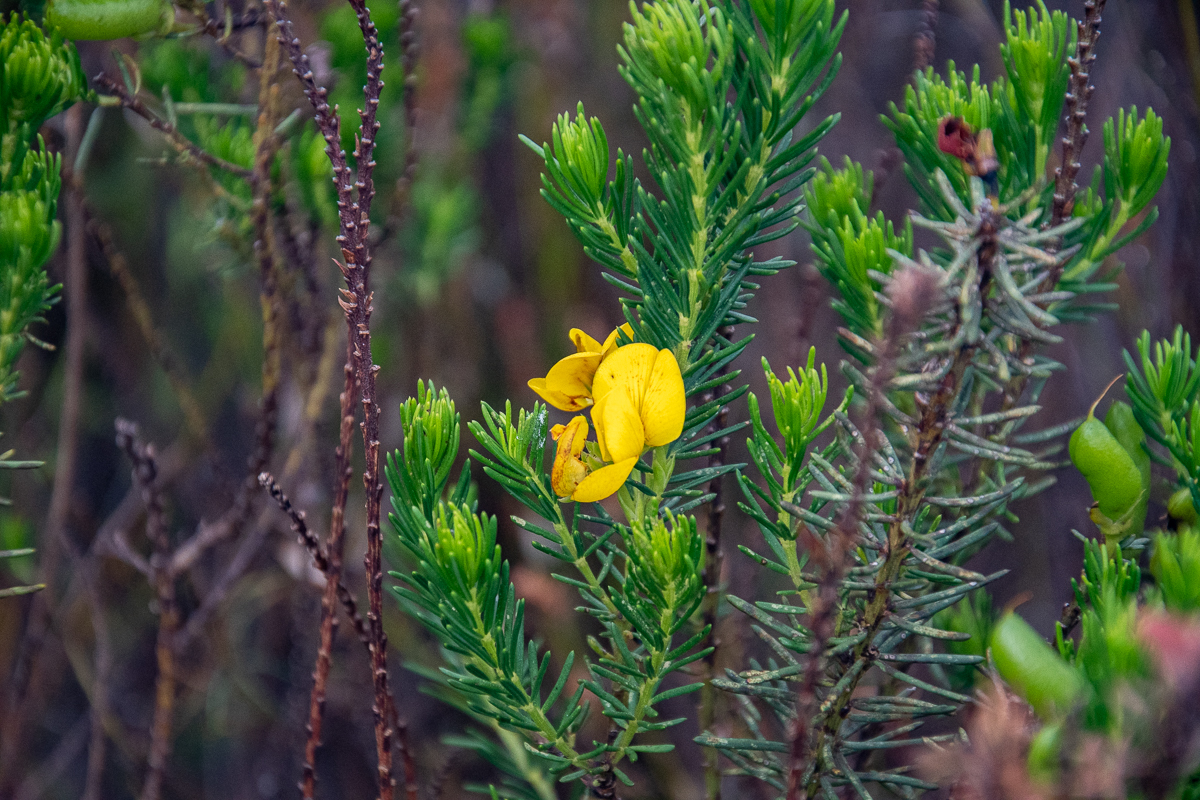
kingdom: Plantae
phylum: Tracheophyta
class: Magnoliopsida
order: Fabales
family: Fabaceae
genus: Cyclopia
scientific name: Cyclopia genistoides
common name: Honeybush tea
